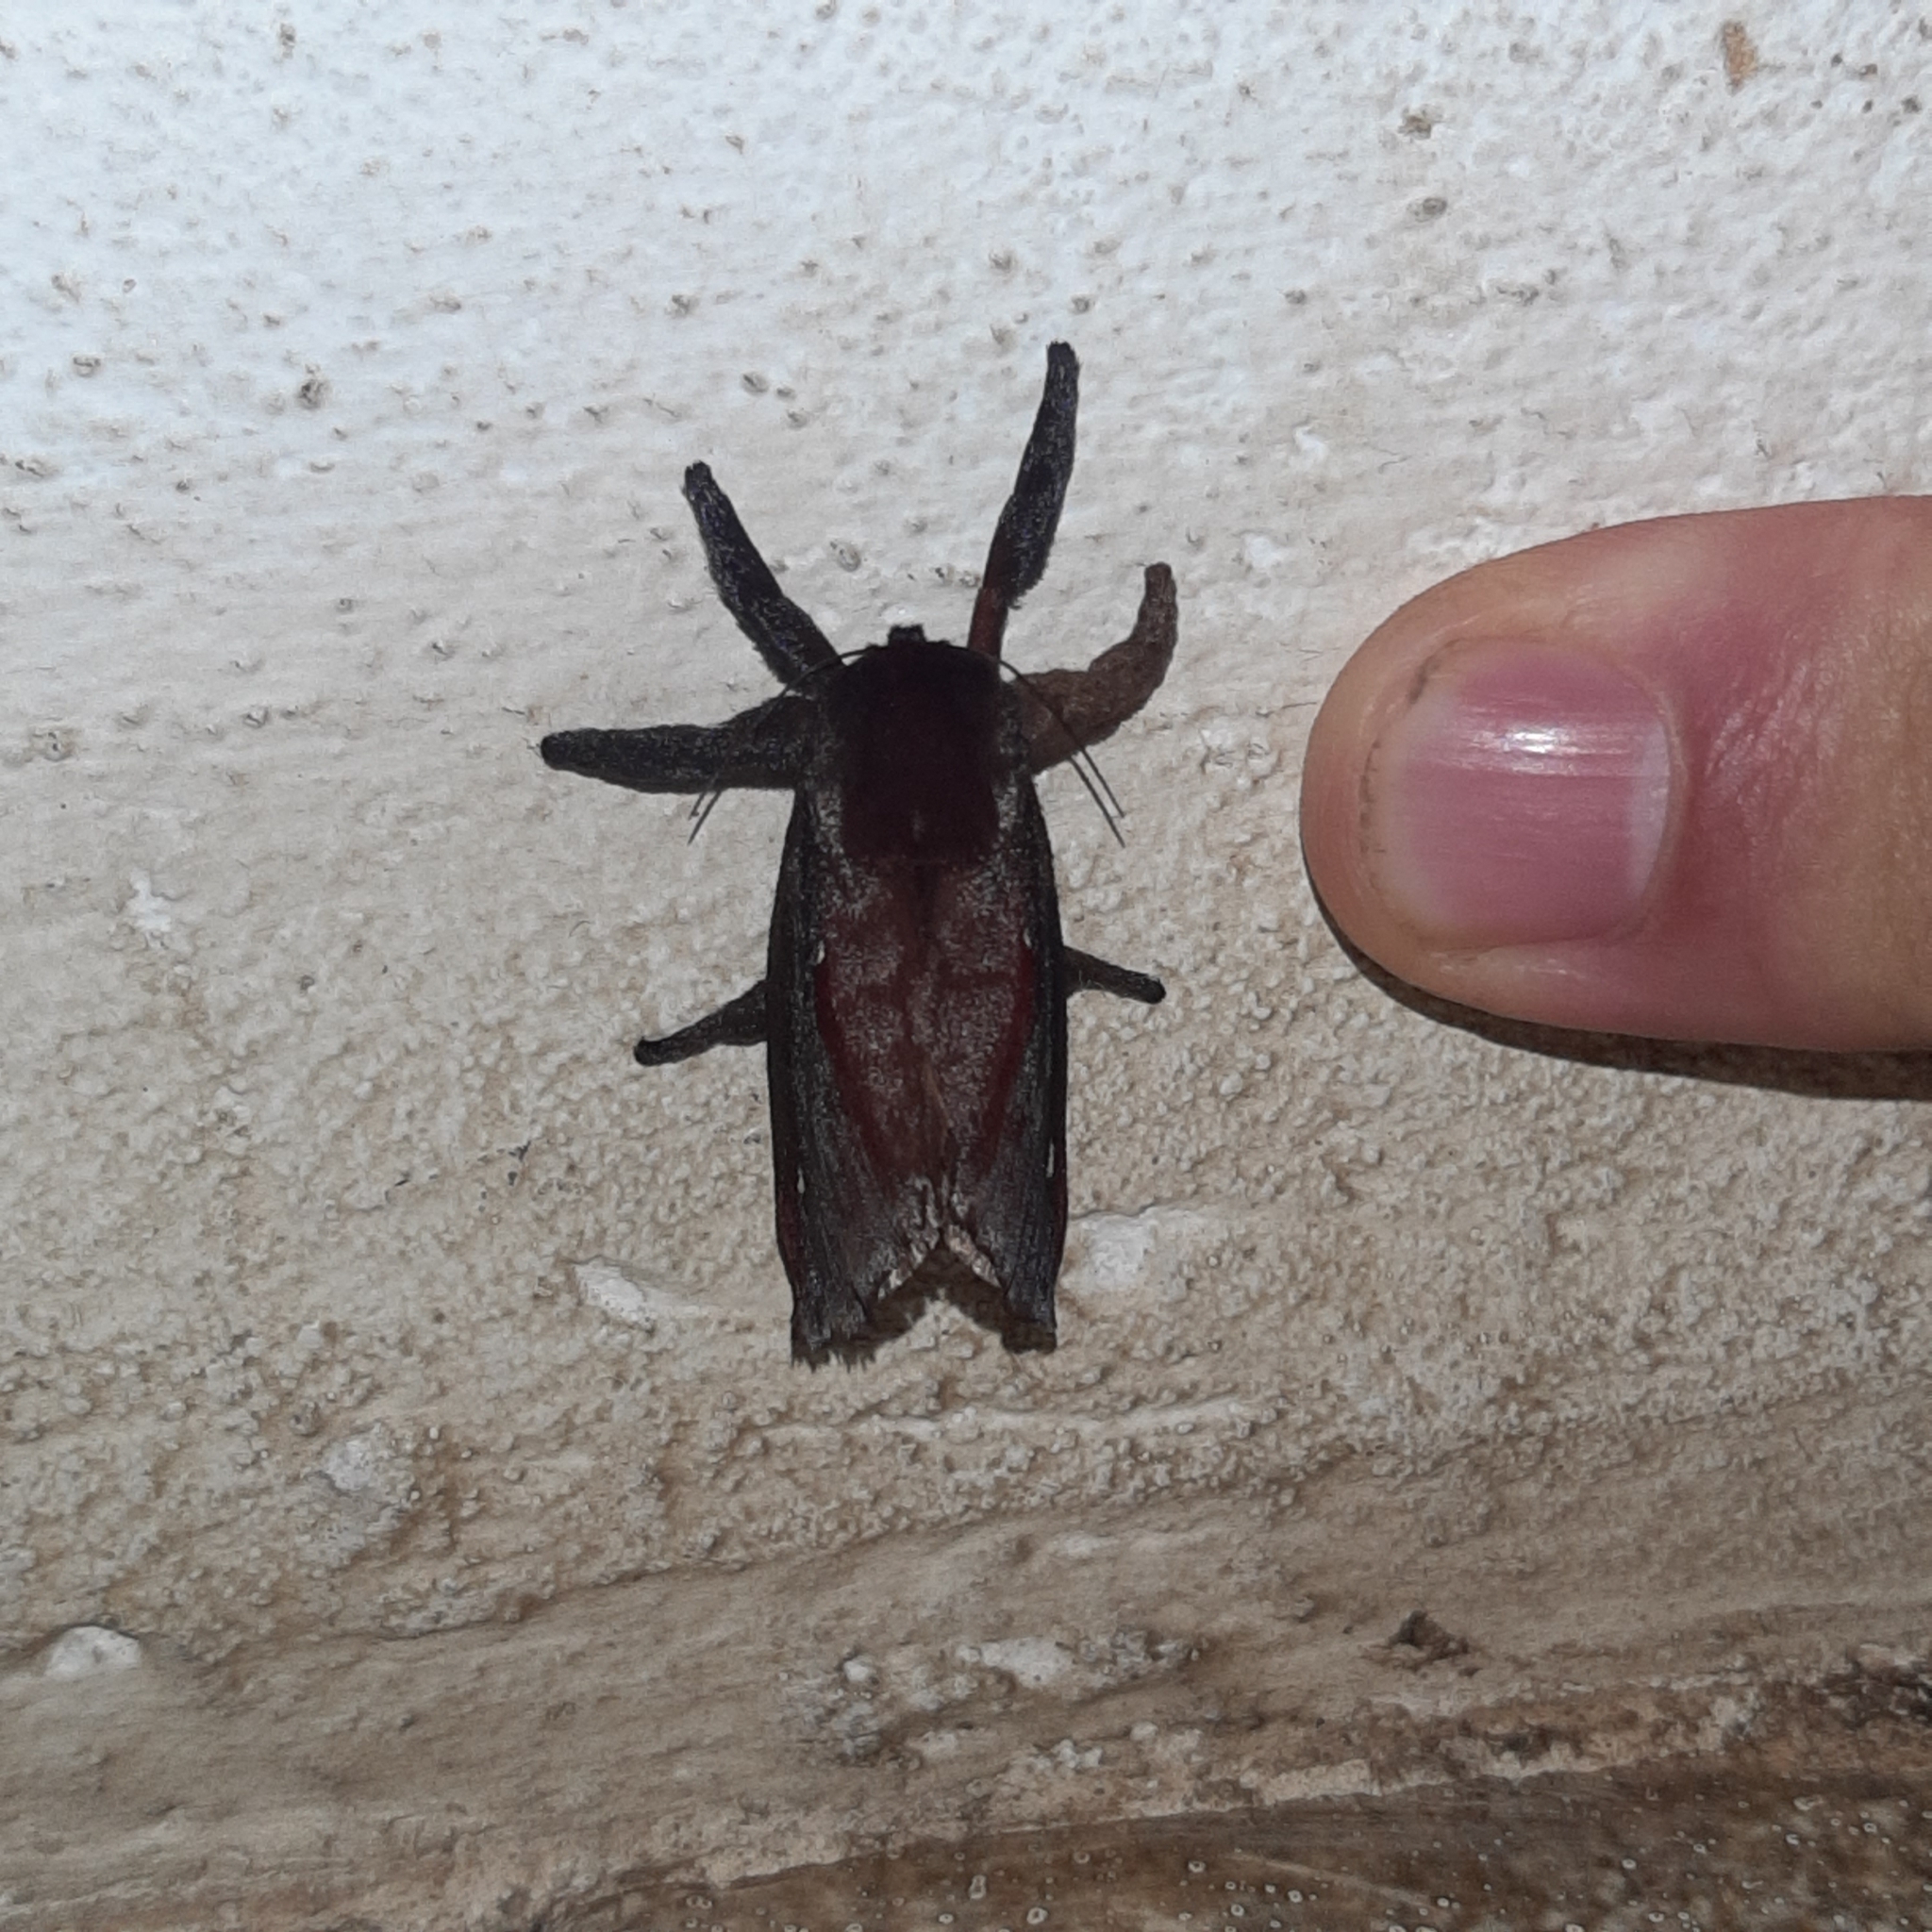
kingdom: Animalia
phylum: Arthropoda
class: Insecta
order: Lepidoptera
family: Limacodidae
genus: Sibine
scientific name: Sibine horrida
